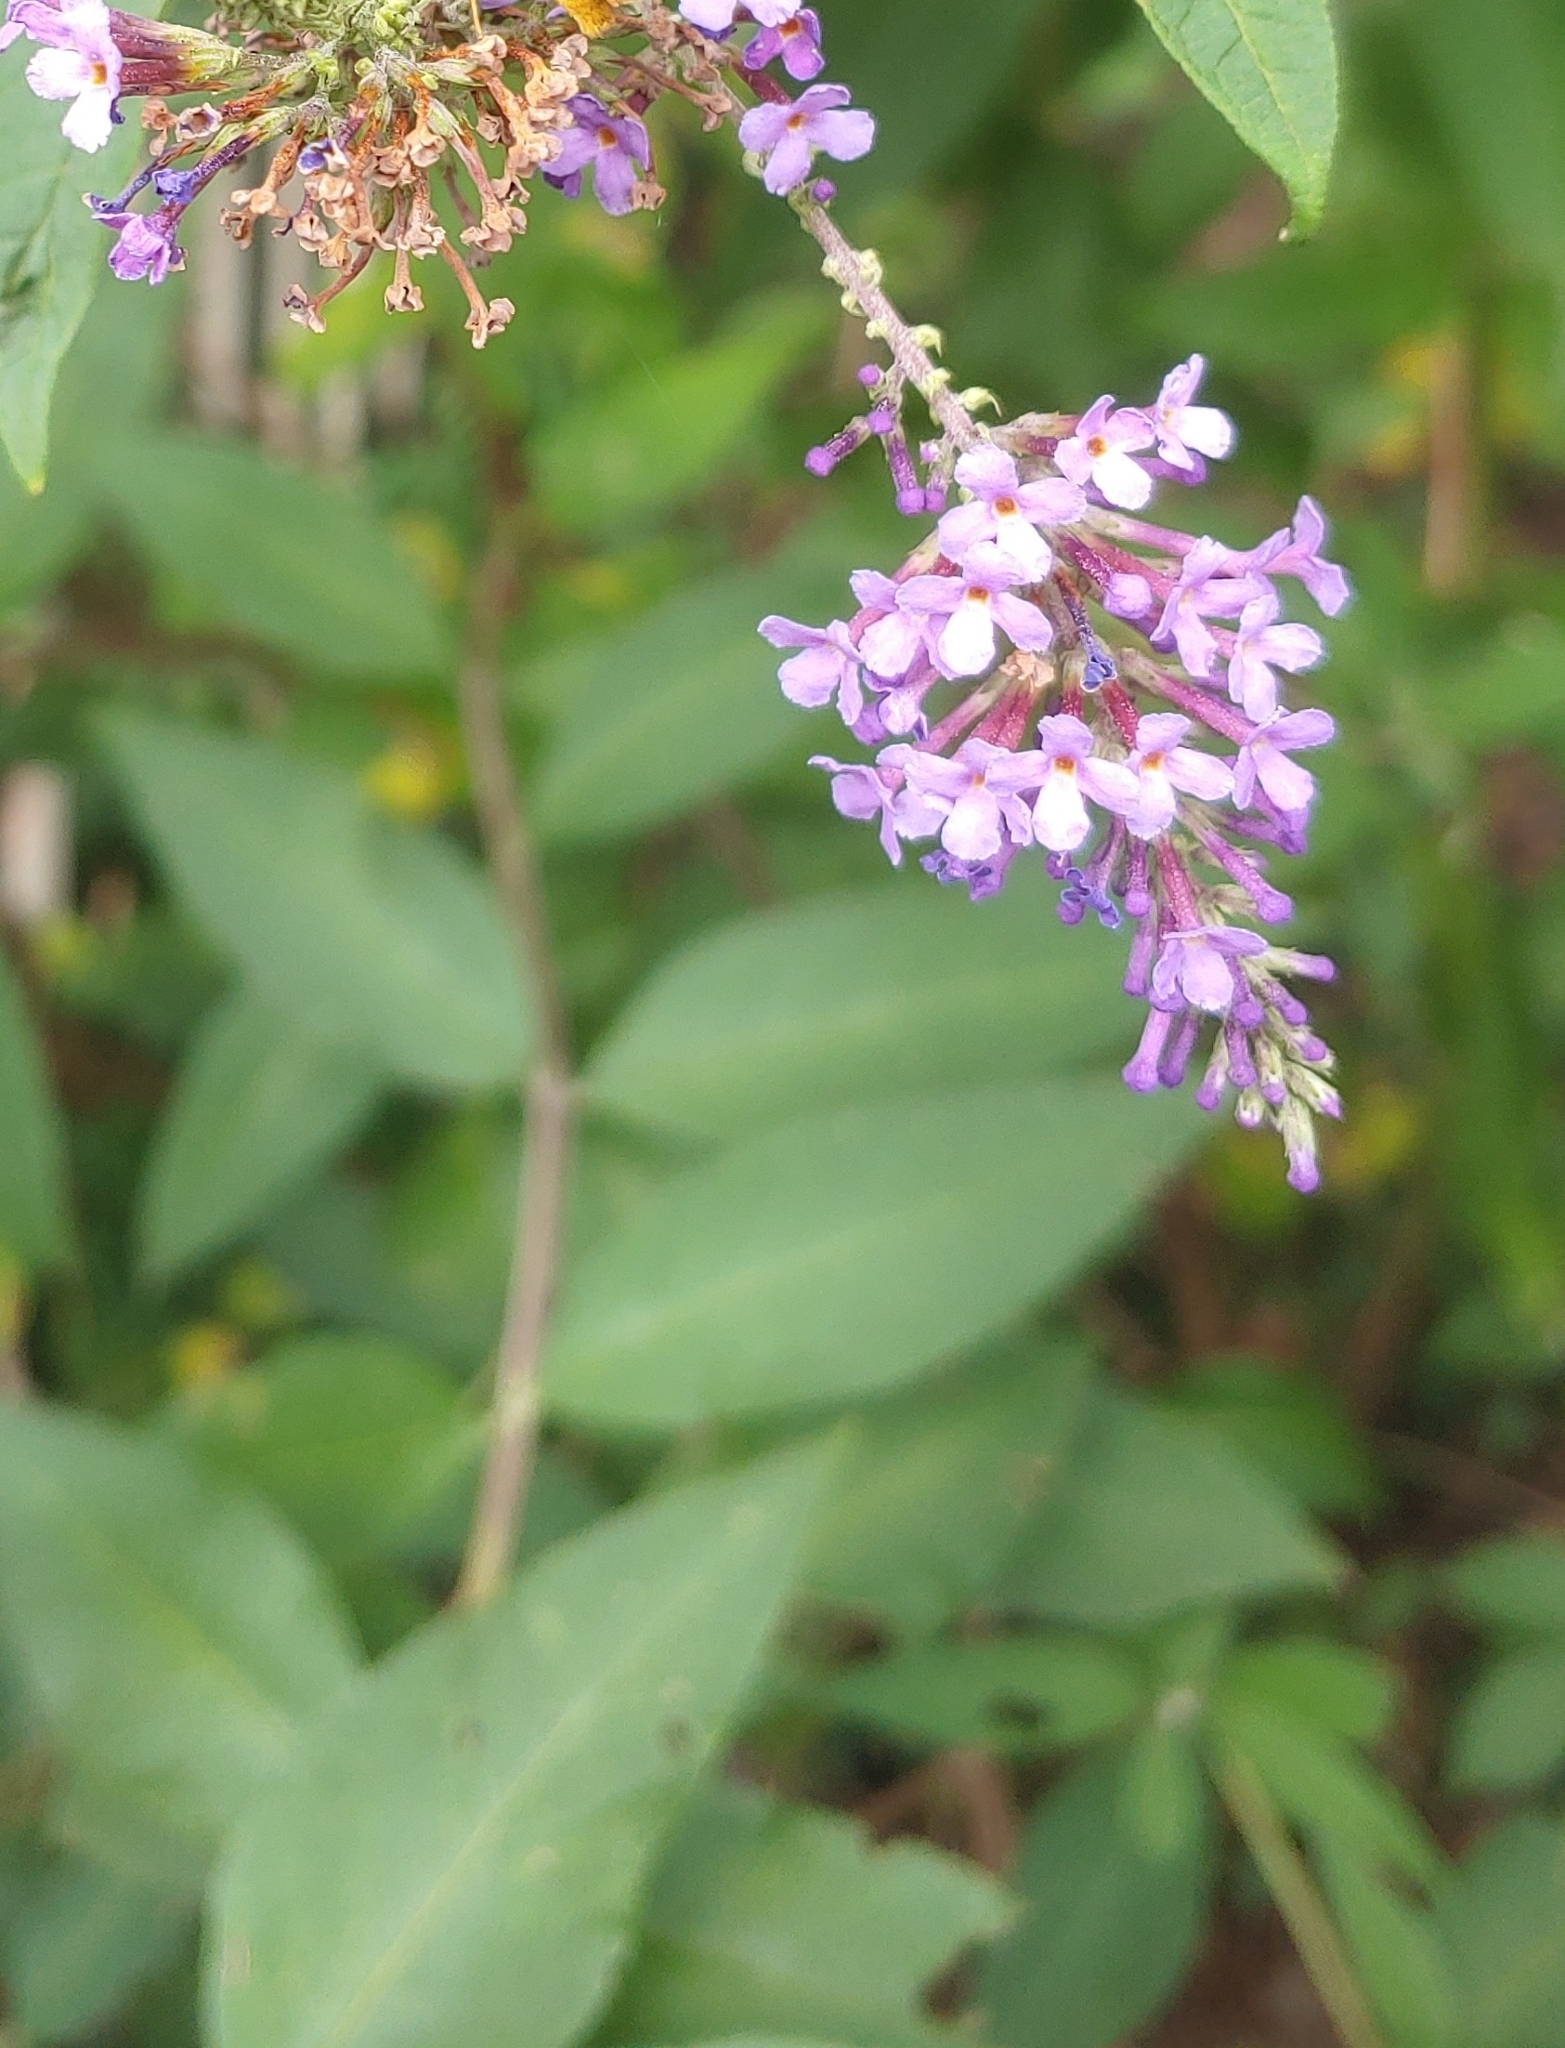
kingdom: Plantae
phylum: Tracheophyta
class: Magnoliopsida
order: Lamiales
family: Scrophulariaceae
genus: Buddleja
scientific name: Buddleja davidii
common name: Butterfly-bush
